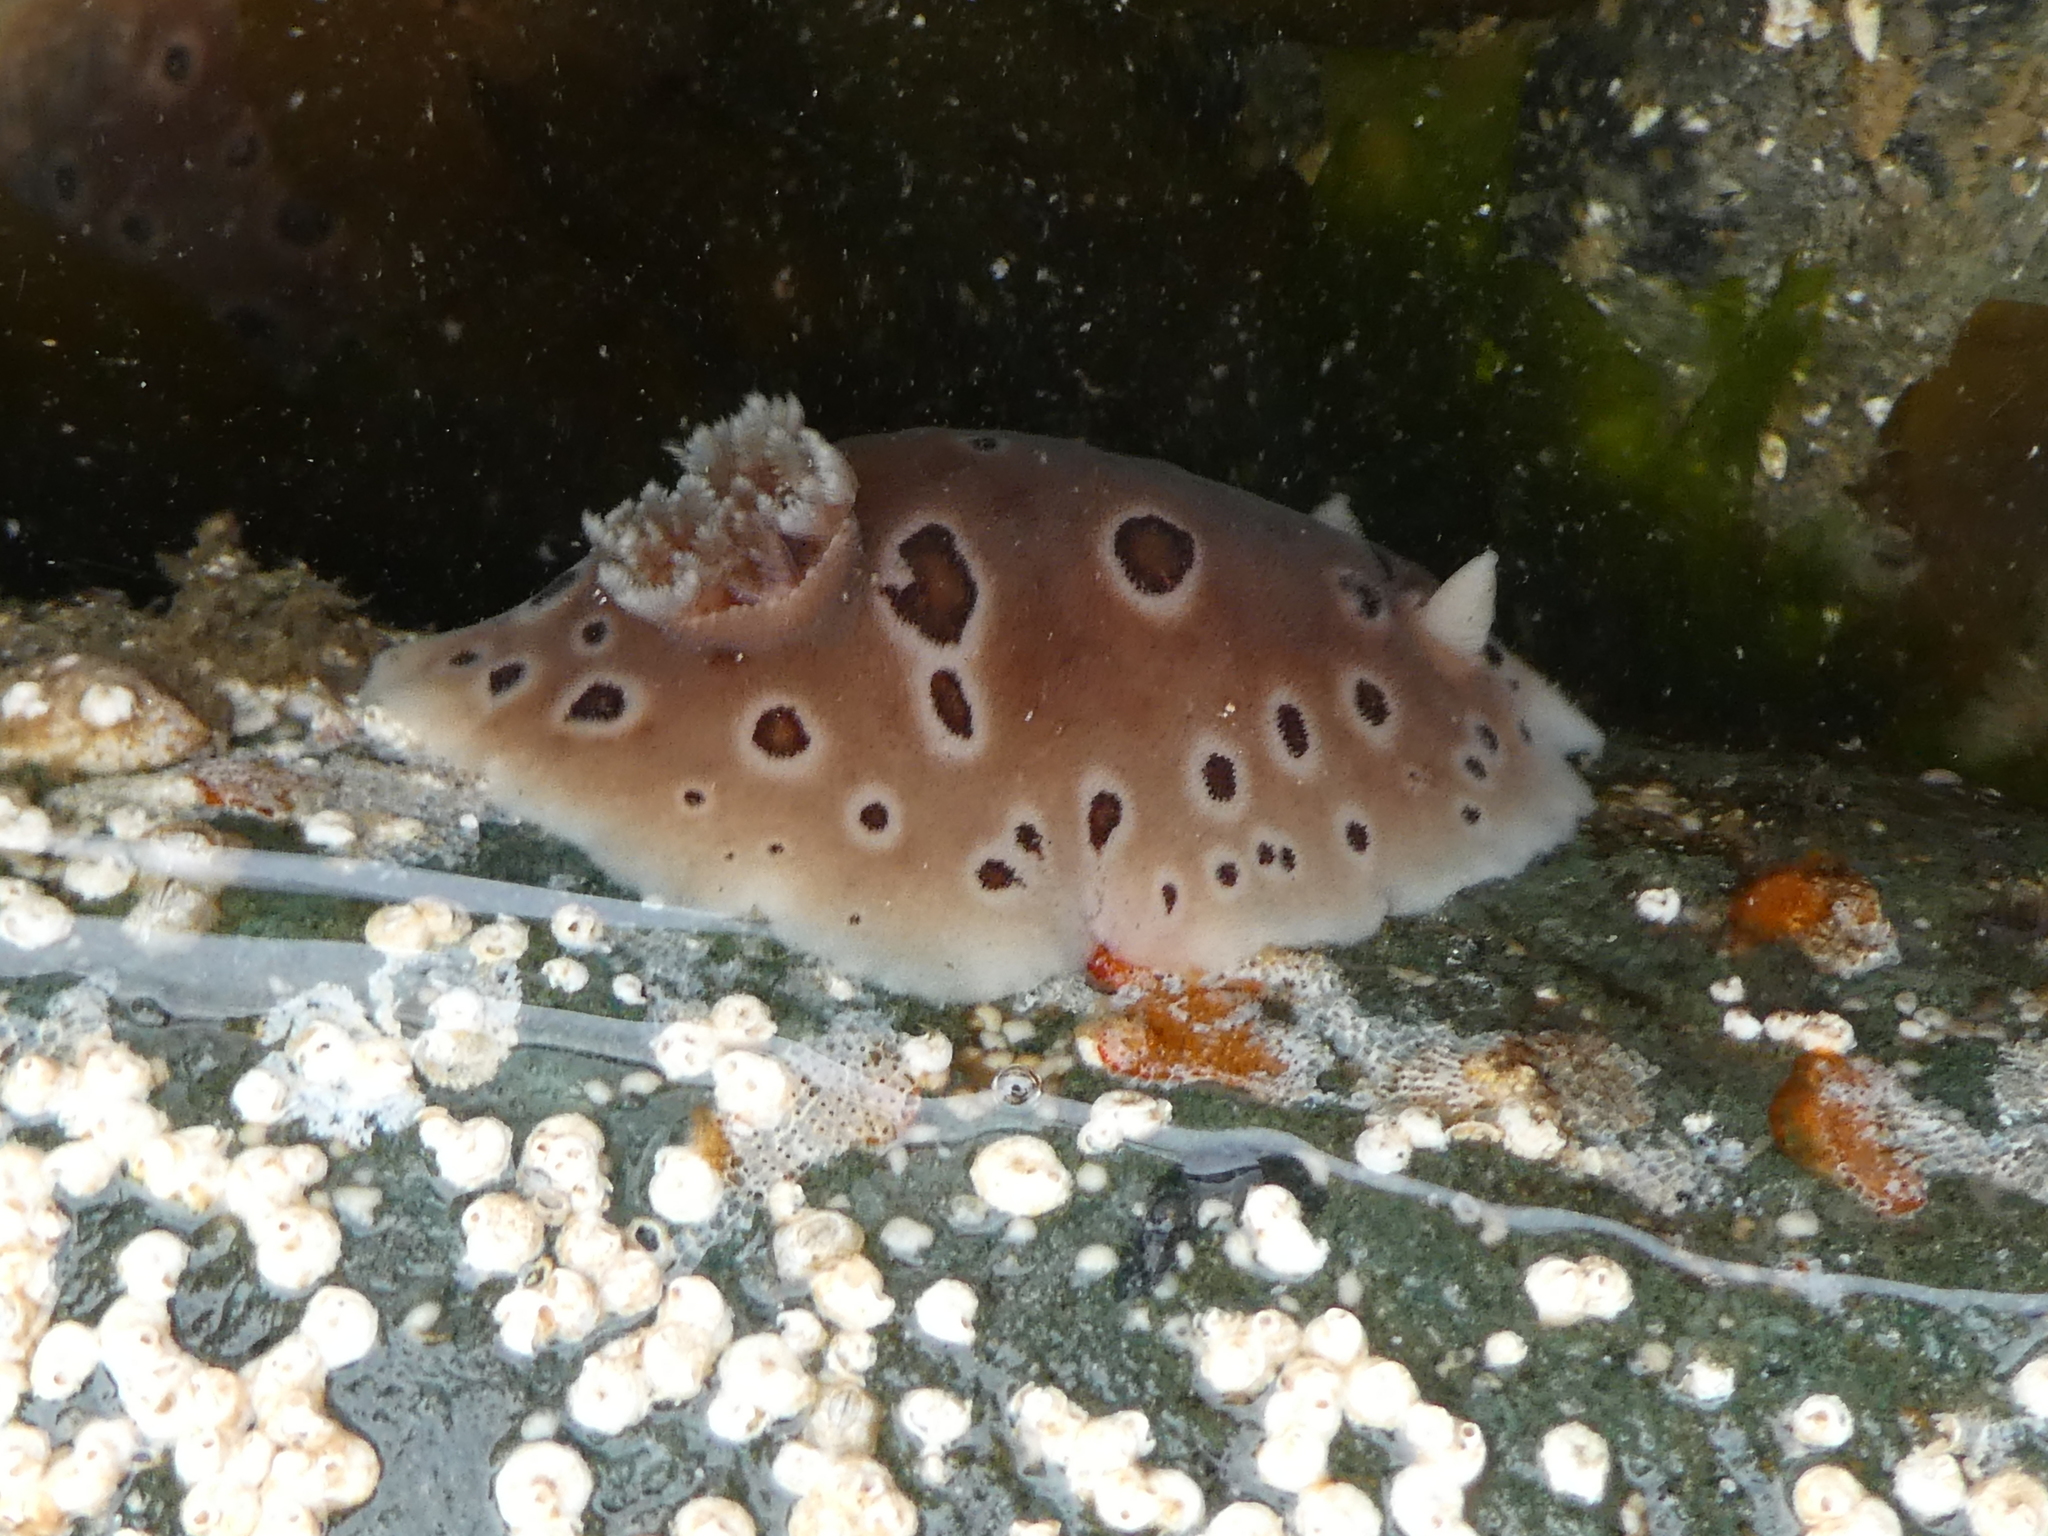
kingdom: Animalia
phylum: Mollusca
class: Gastropoda
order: Nudibranchia
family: Discodorididae
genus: Diaulula
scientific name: Diaulula odonoghuei
